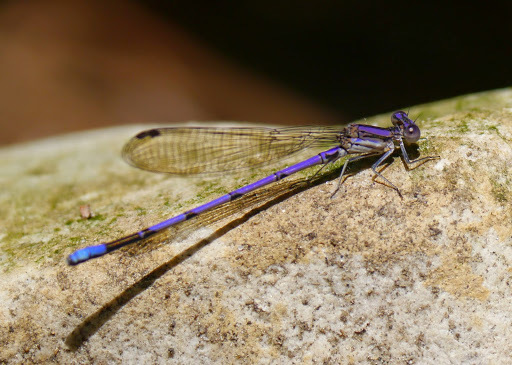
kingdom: Animalia
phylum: Arthropoda
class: Insecta
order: Odonata
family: Coenagrionidae
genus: Argia
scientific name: Argia fumipennis
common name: Variable dancer
